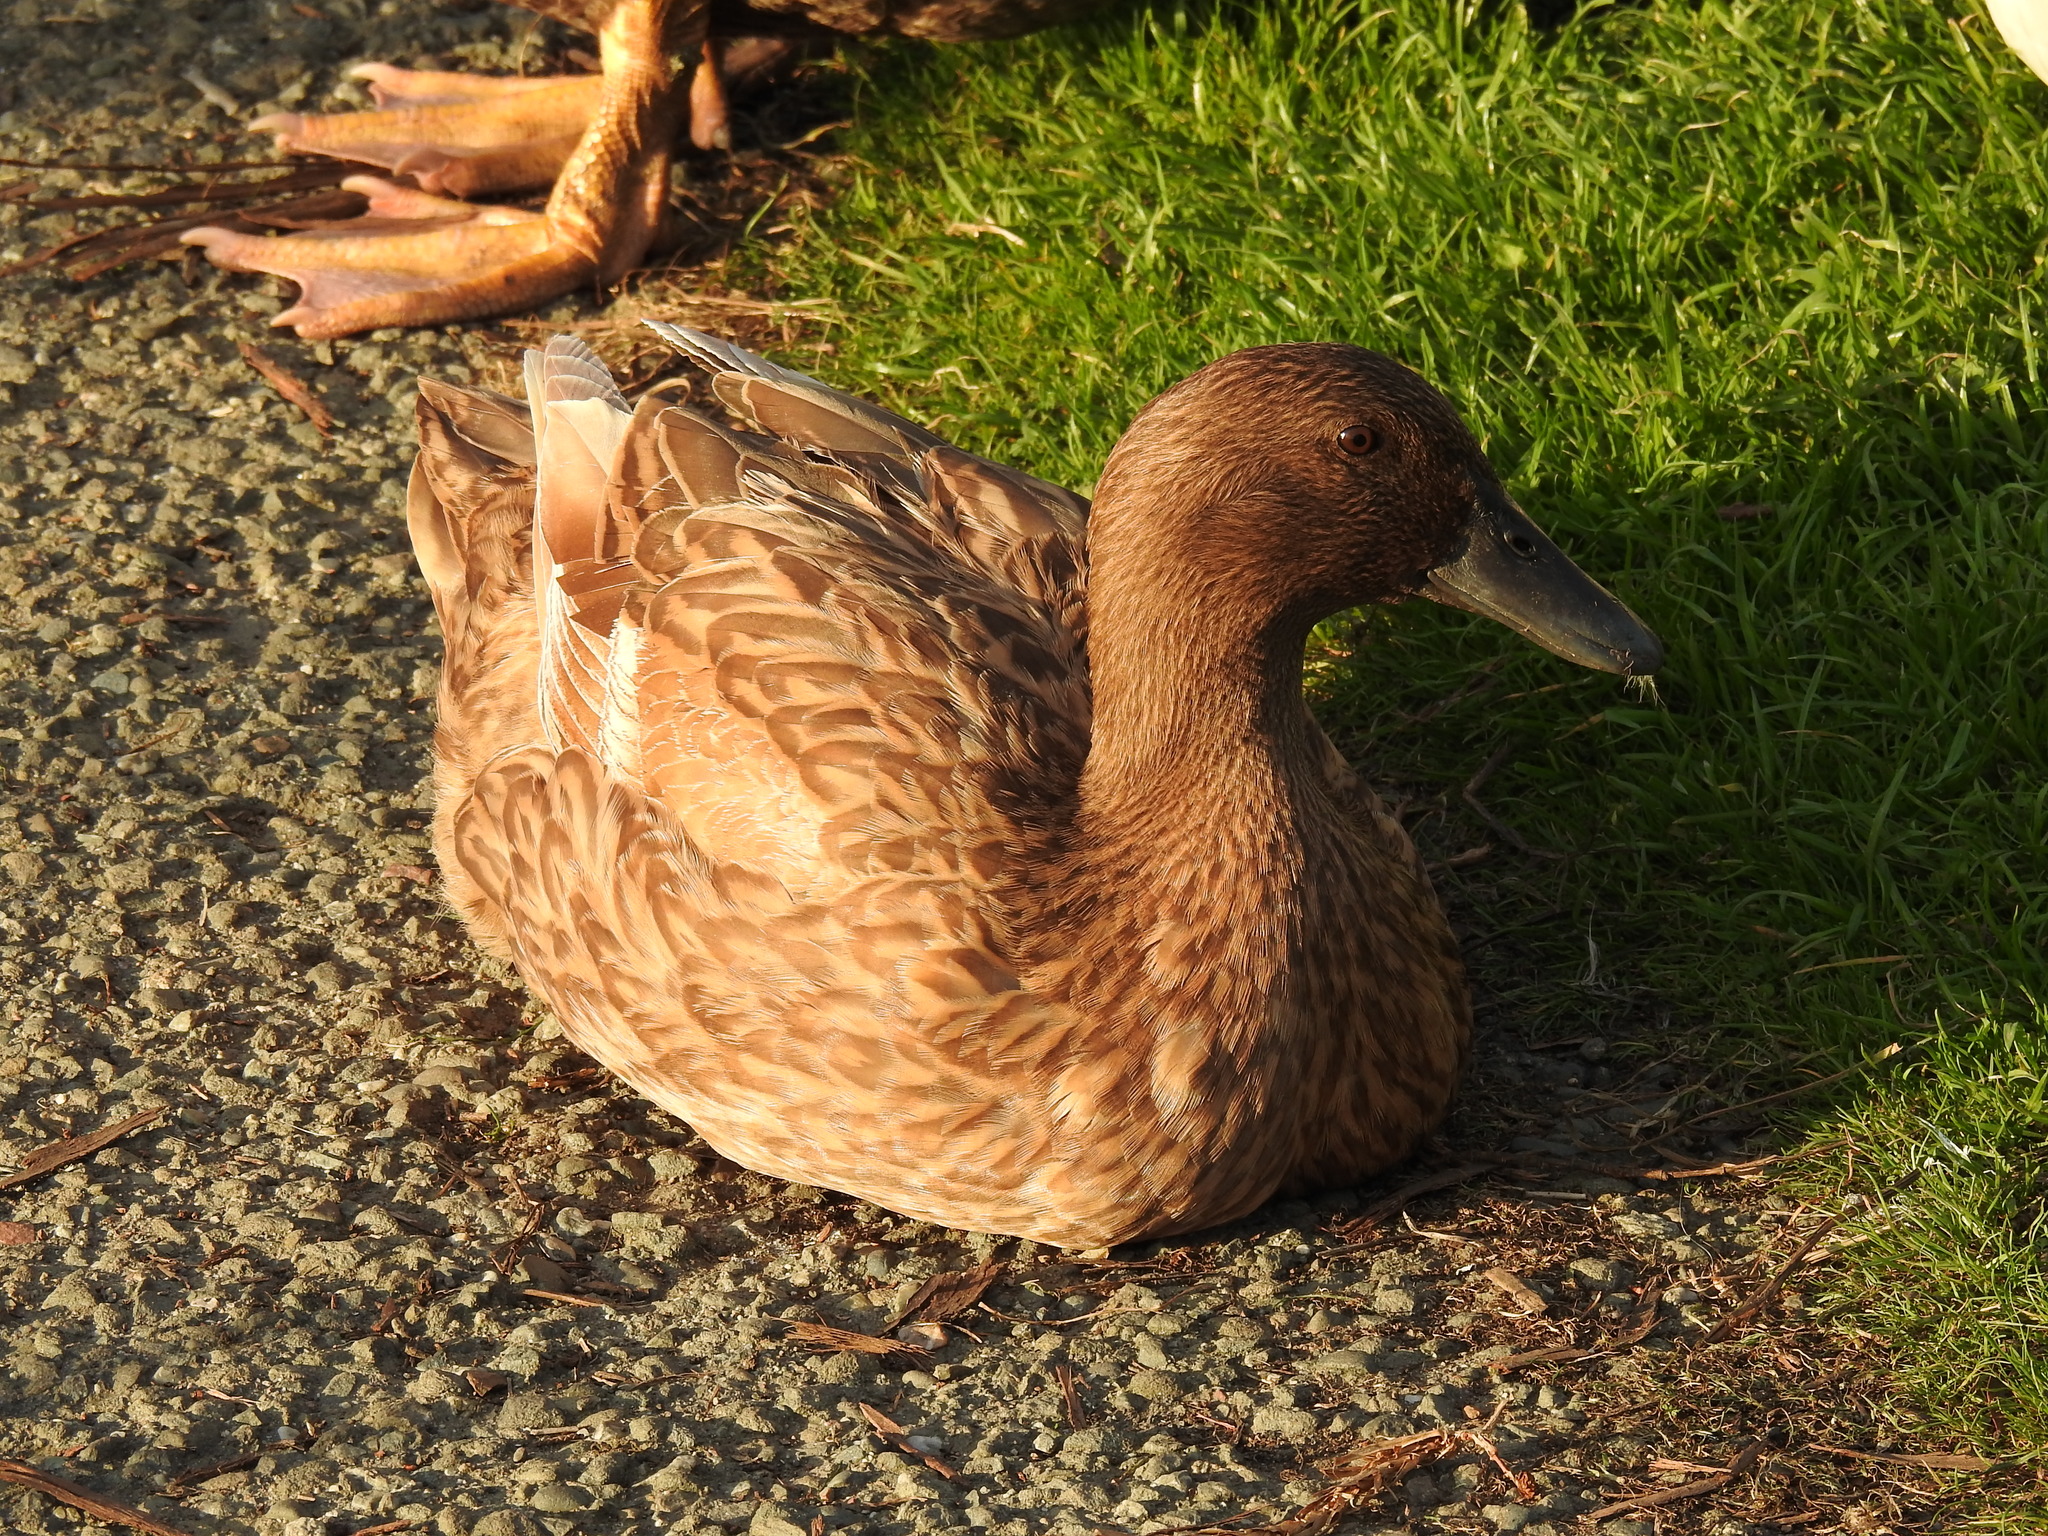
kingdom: Animalia
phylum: Chordata
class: Aves
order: Anseriformes
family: Anatidae
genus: Anas
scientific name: Anas platyrhynchos
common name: Mallard
